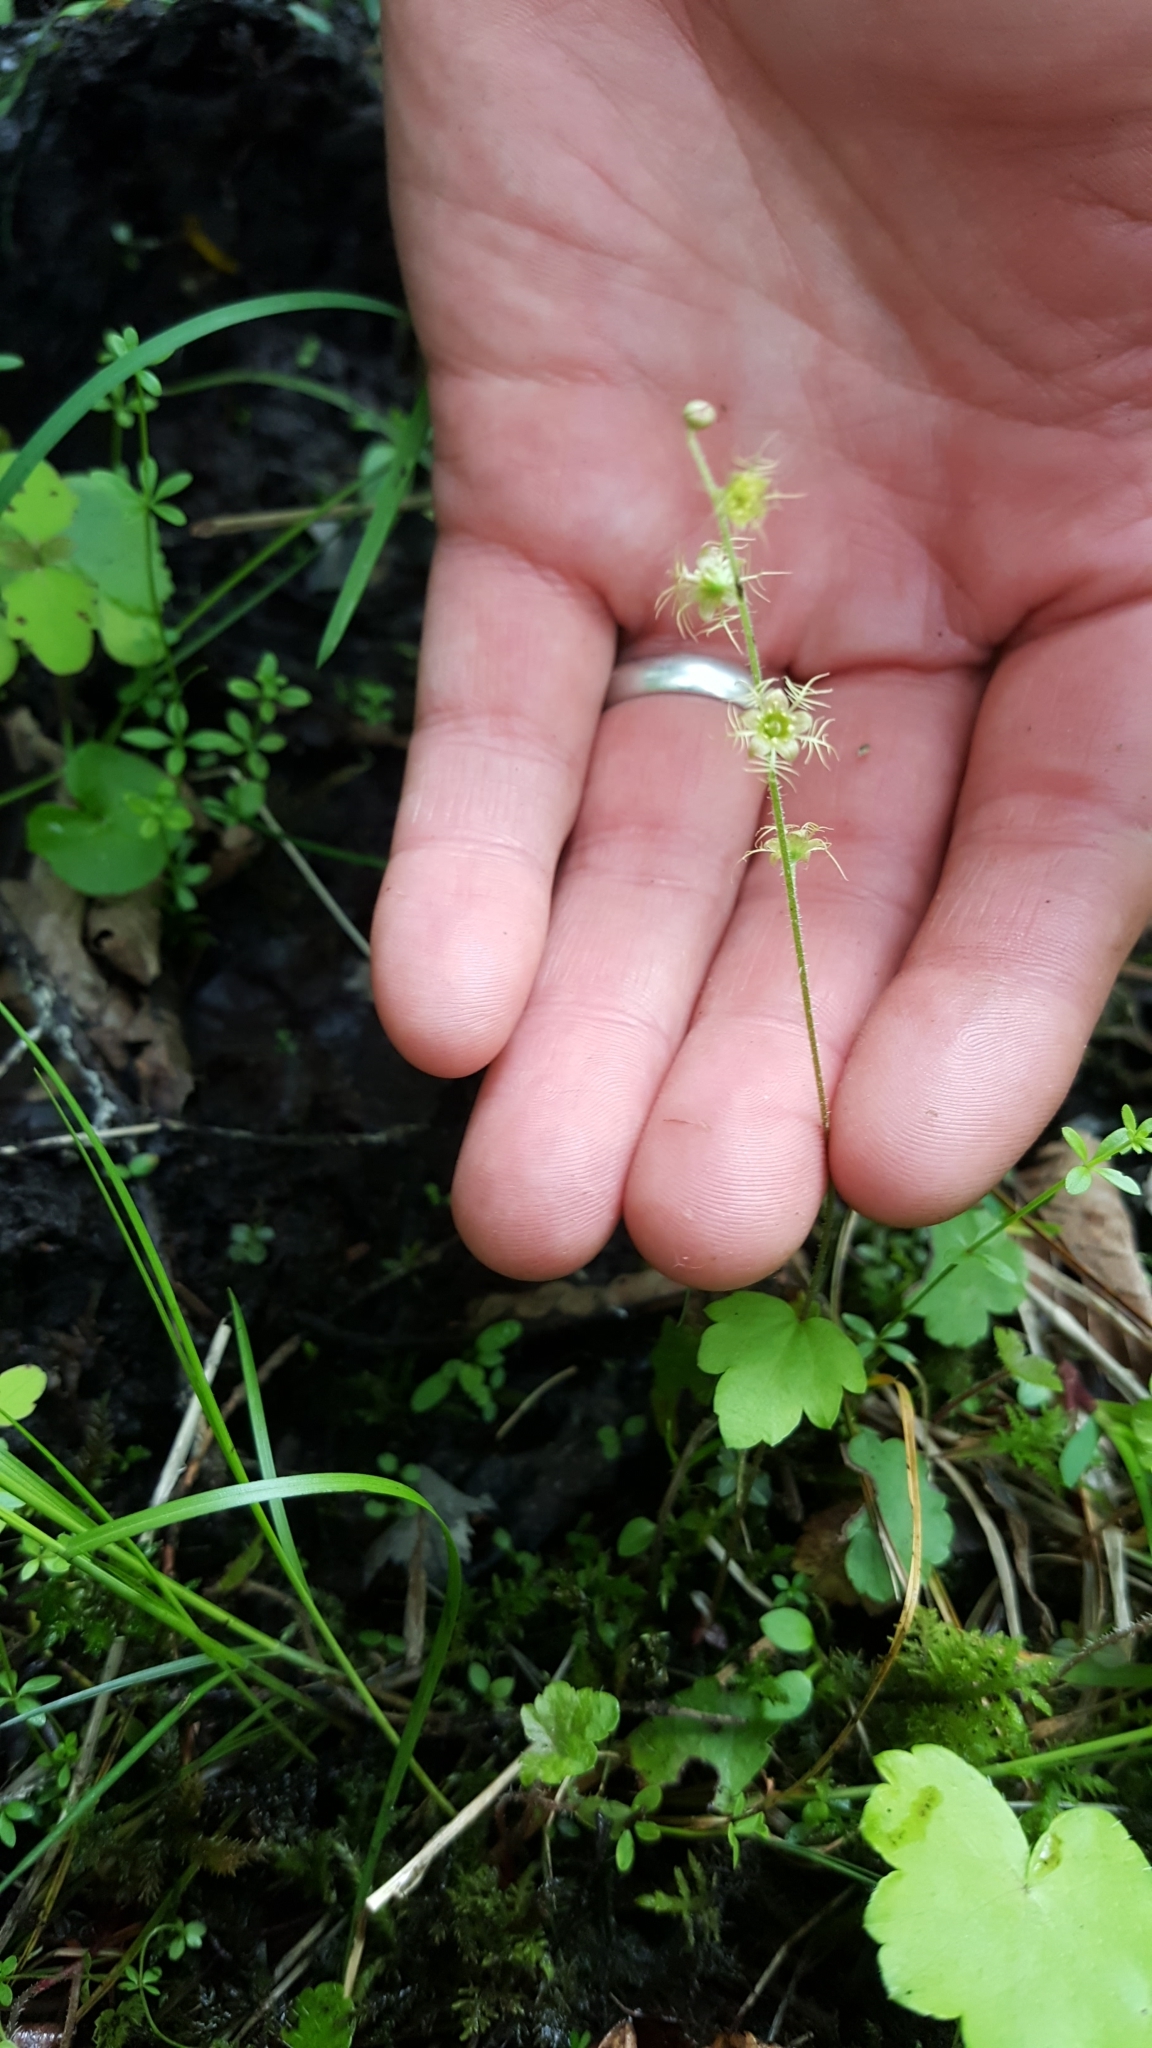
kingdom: Plantae
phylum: Tracheophyta
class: Magnoliopsida
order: Saxifragales
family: Saxifragaceae
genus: Mitella
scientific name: Mitella nuda
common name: Bare-stemmed bishop's-cap
